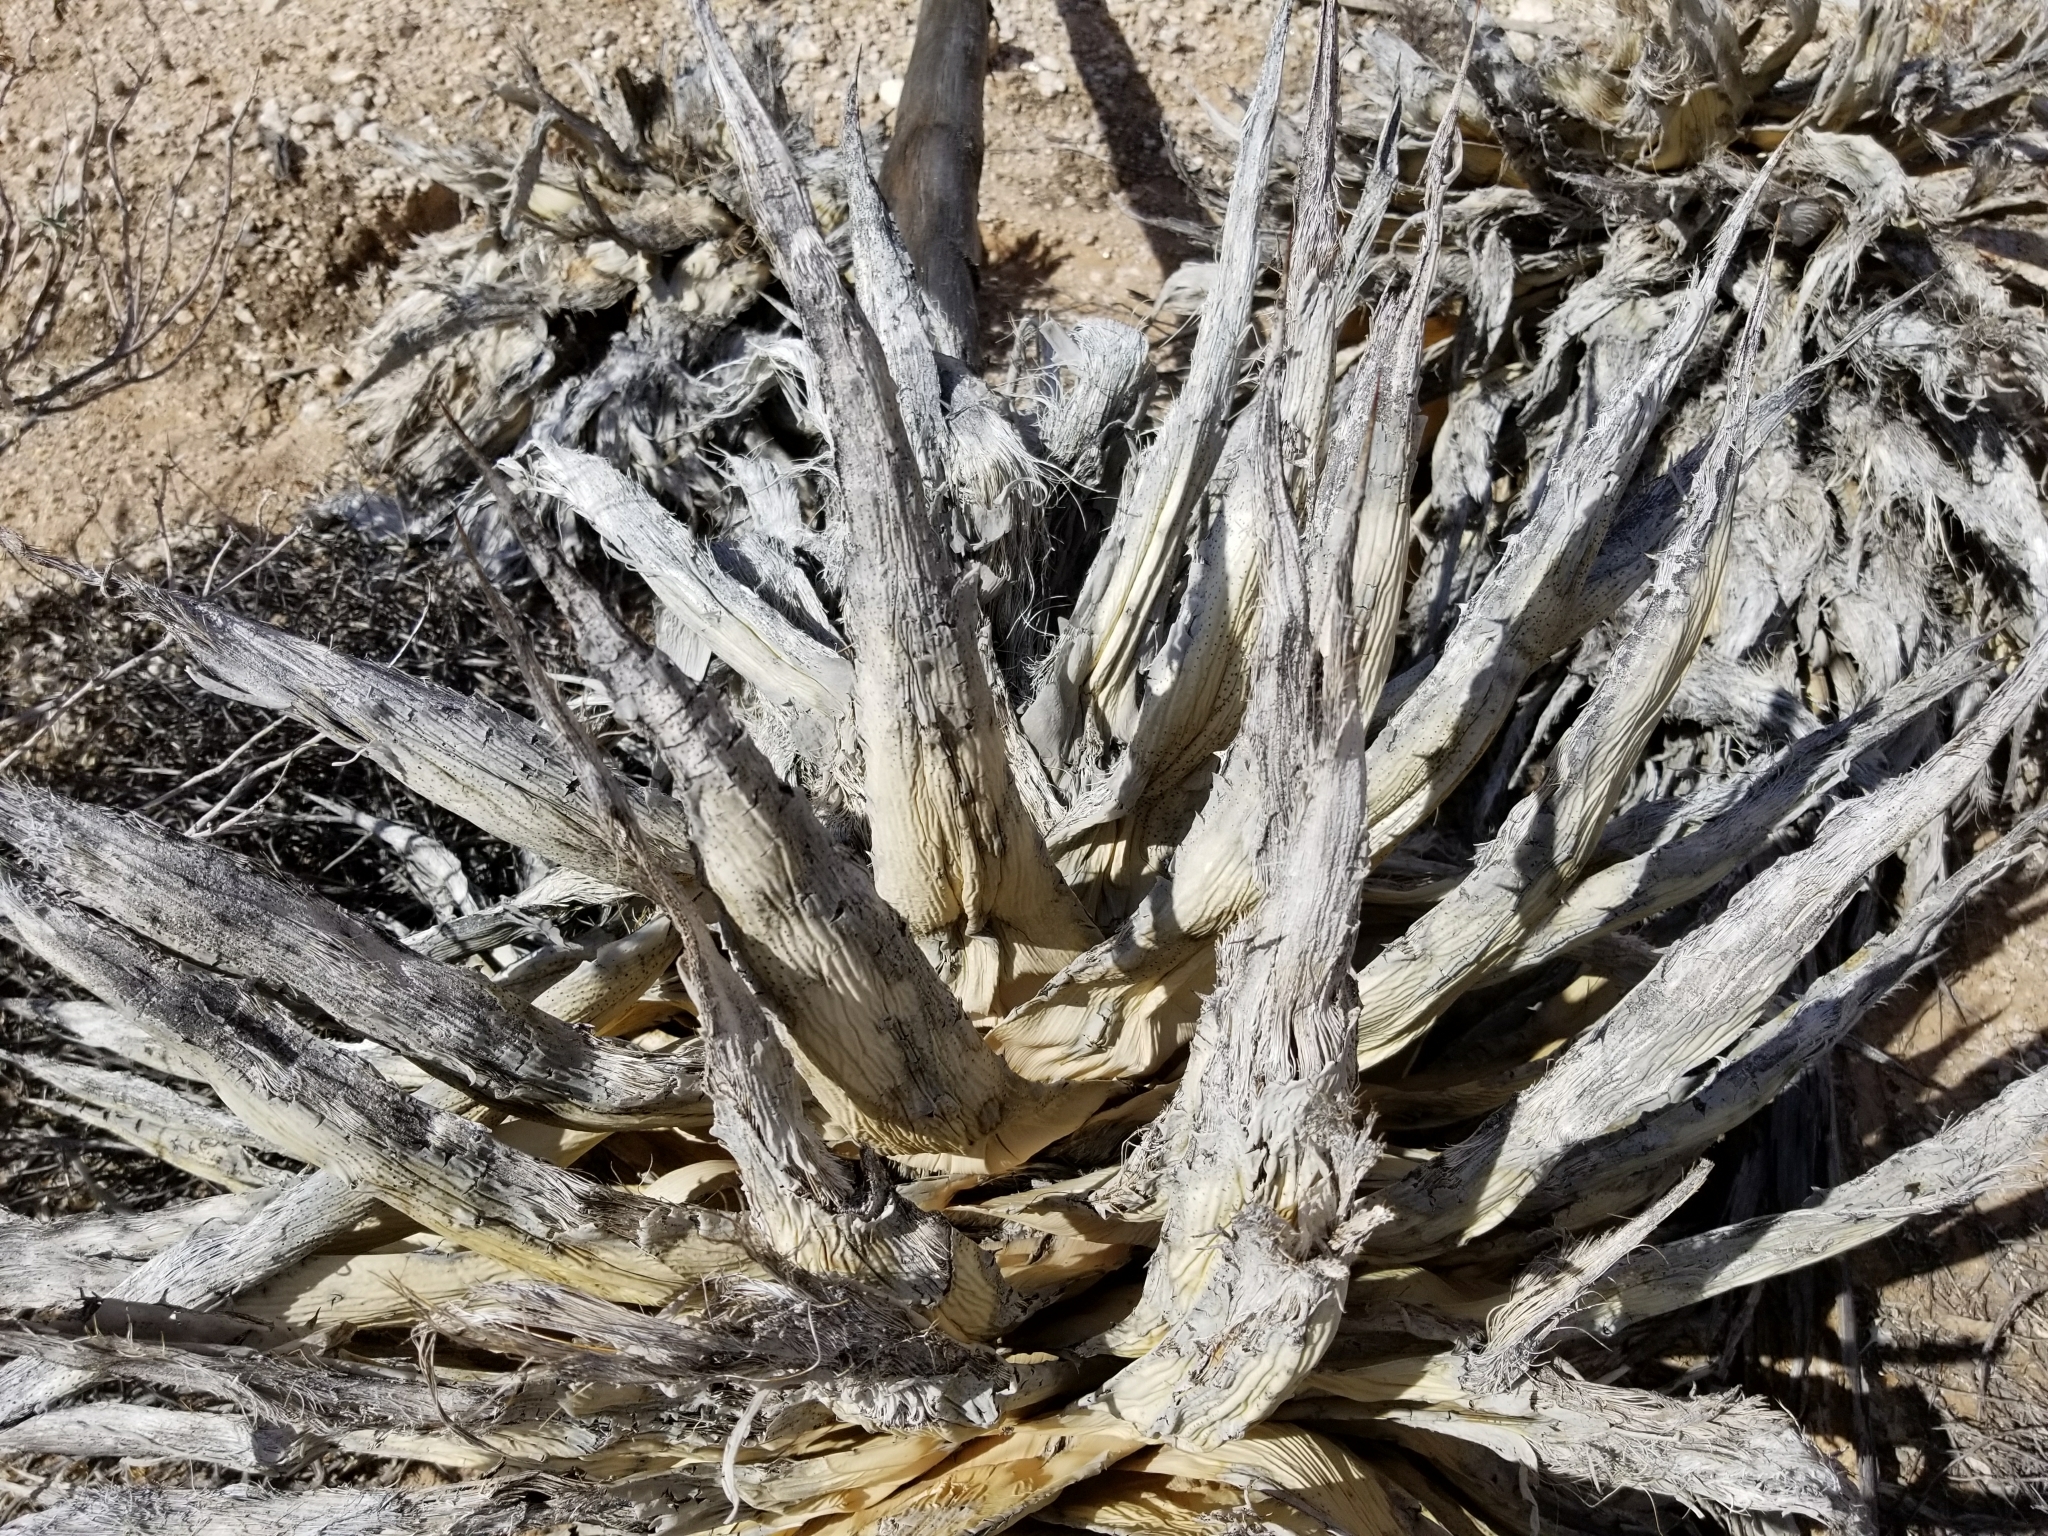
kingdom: Plantae
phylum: Tracheophyta
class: Liliopsida
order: Asparagales
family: Asparagaceae
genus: Agave
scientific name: Agave simplex
